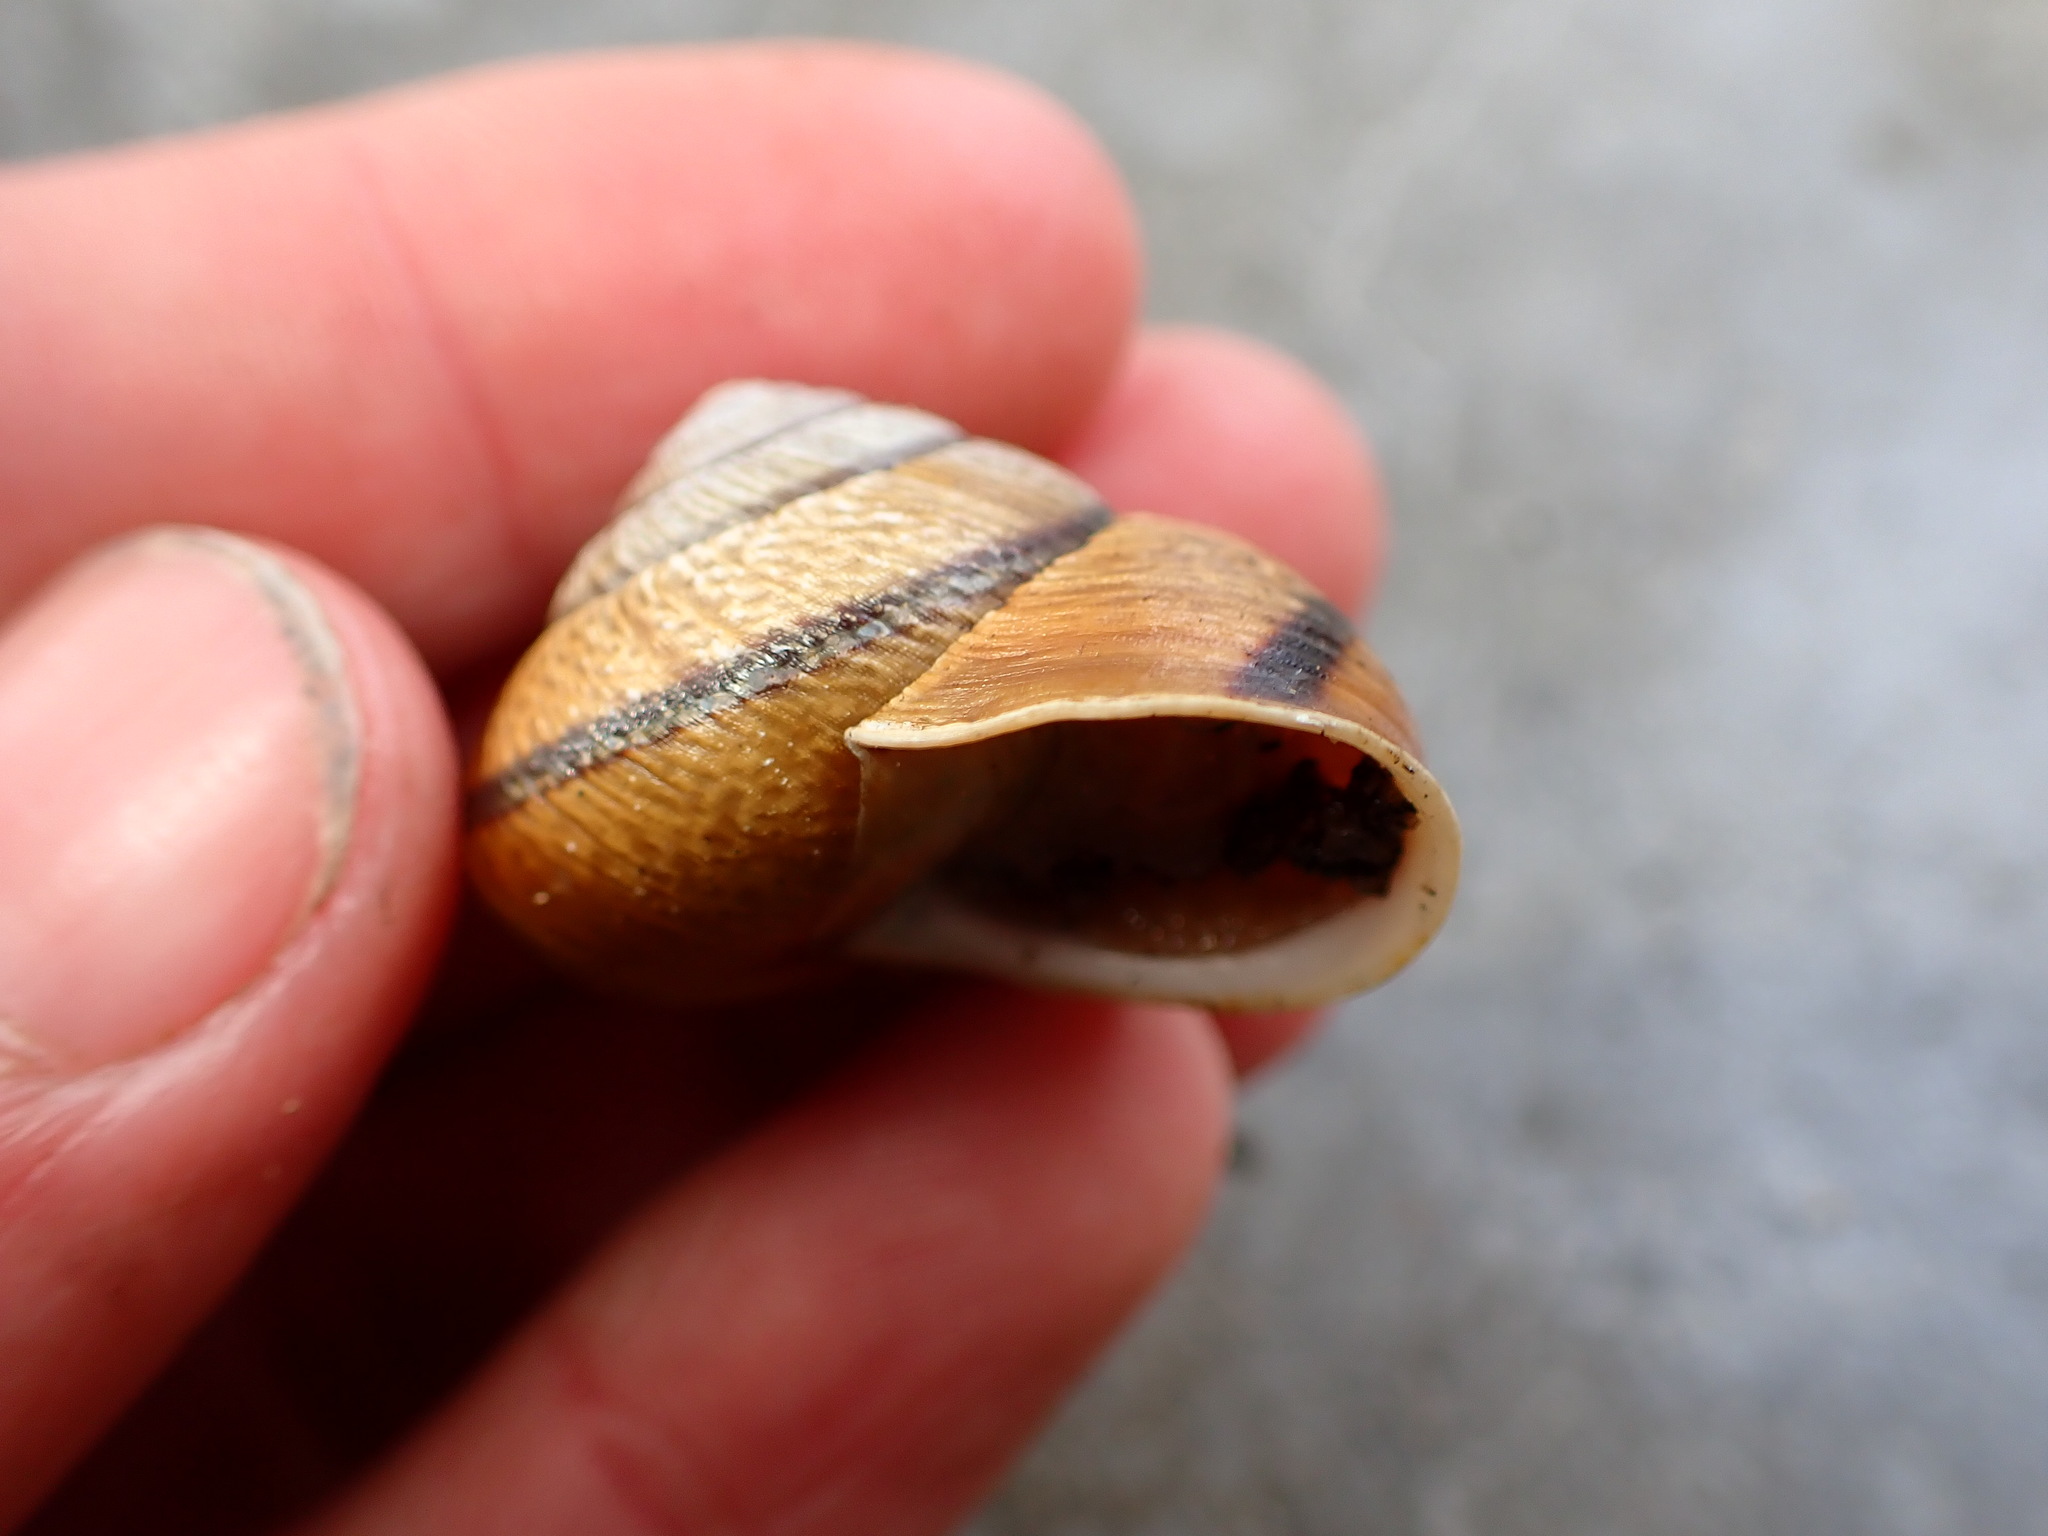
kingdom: Animalia
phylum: Mollusca
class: Gastropoda
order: Stylommatophora
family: Xanthonychidae
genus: Helminthoglypta
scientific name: Helminthoglypta arrosa
